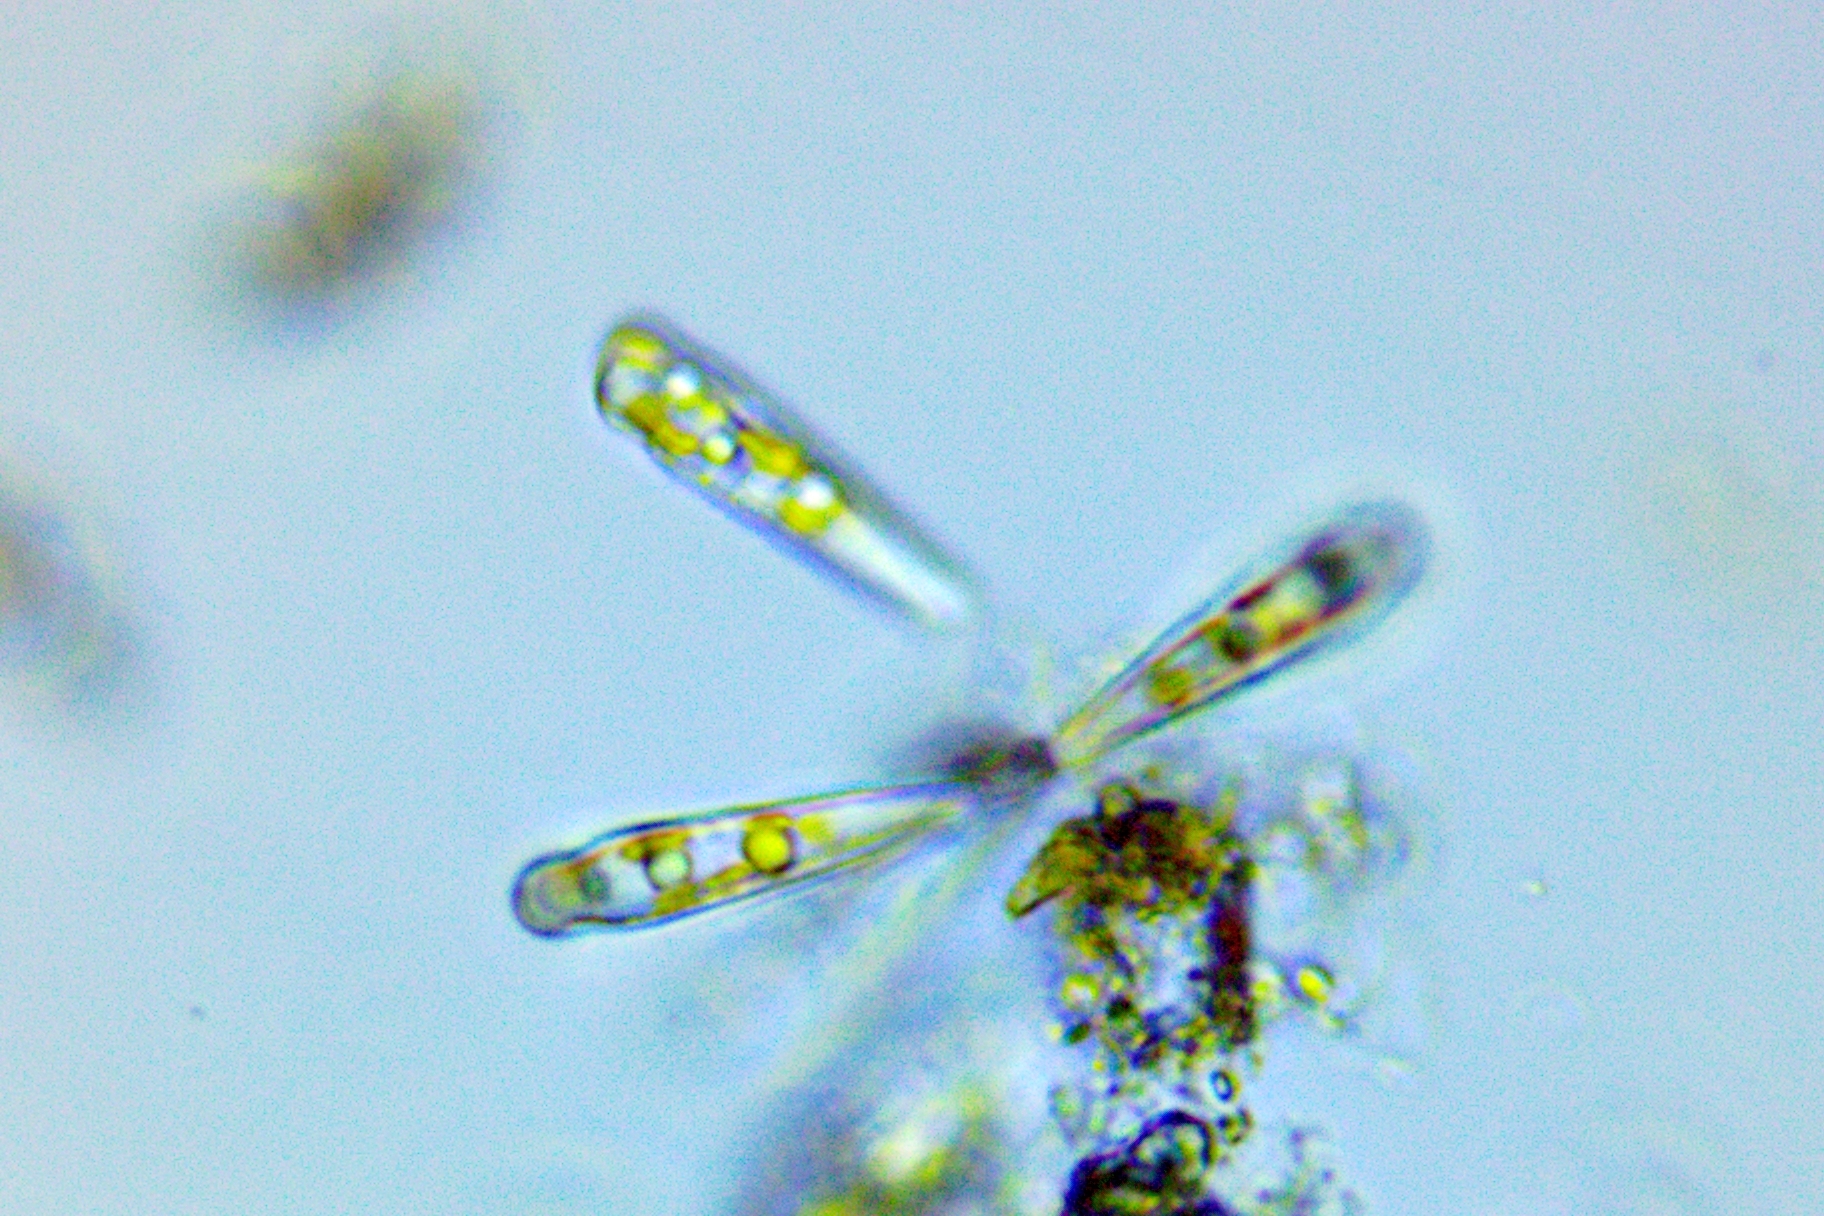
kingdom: Chromista
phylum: Ochrophyta
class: Bacillariophyceae
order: Fragilariales
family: Fragilariaceae
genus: Meridion
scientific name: Meridion constrictum
